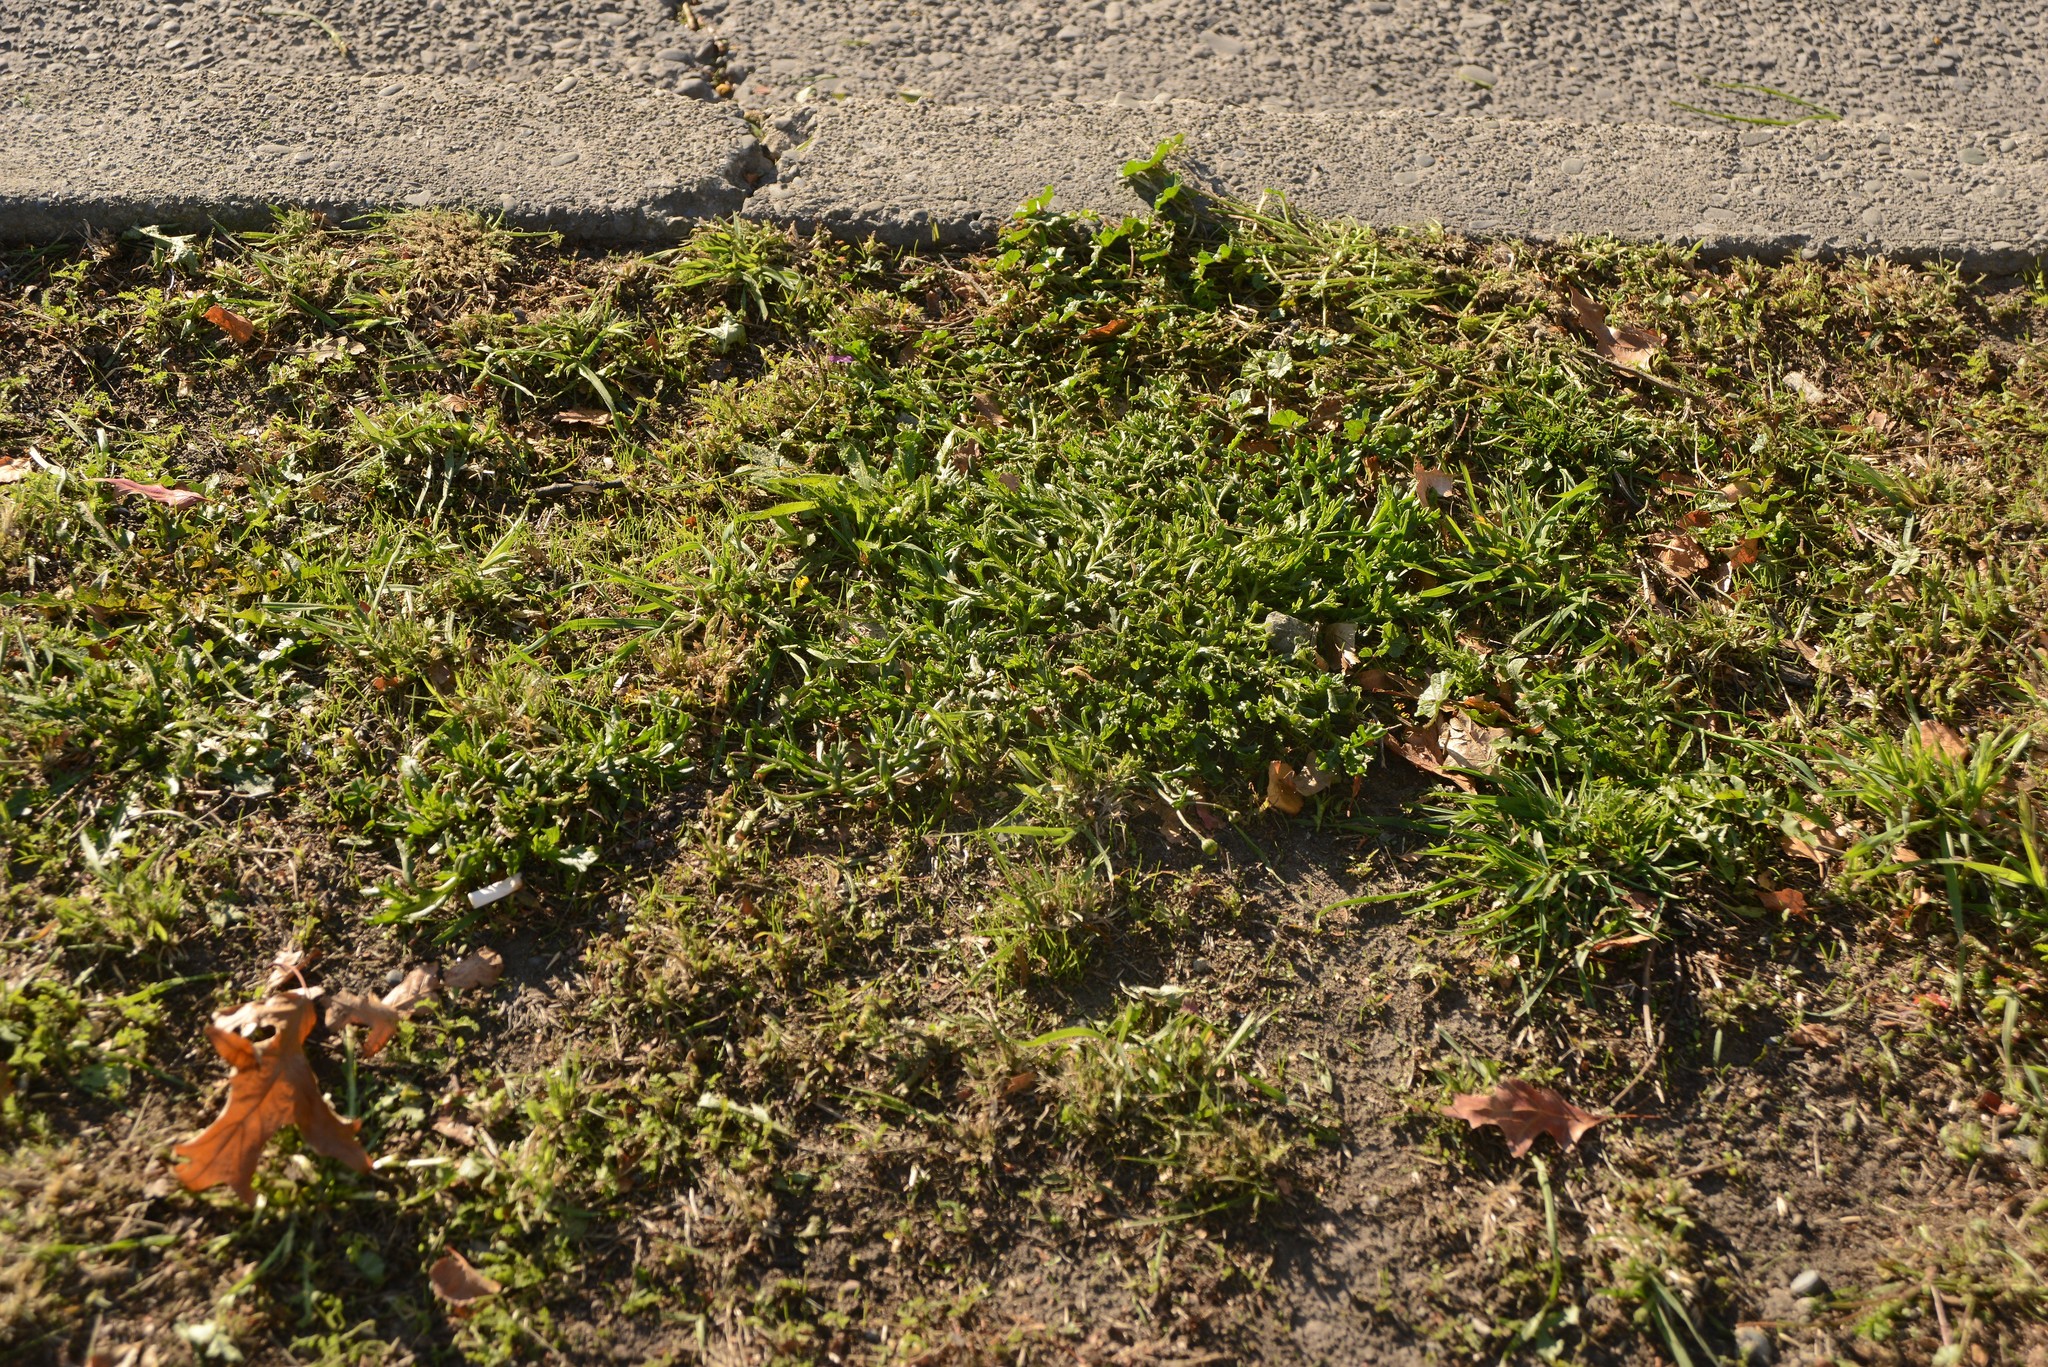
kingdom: Plantae
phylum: Tracheophyta
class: Magnoliopsida
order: Asterales
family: Asteraceae
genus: Senecio
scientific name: Senecio skirrhodon
